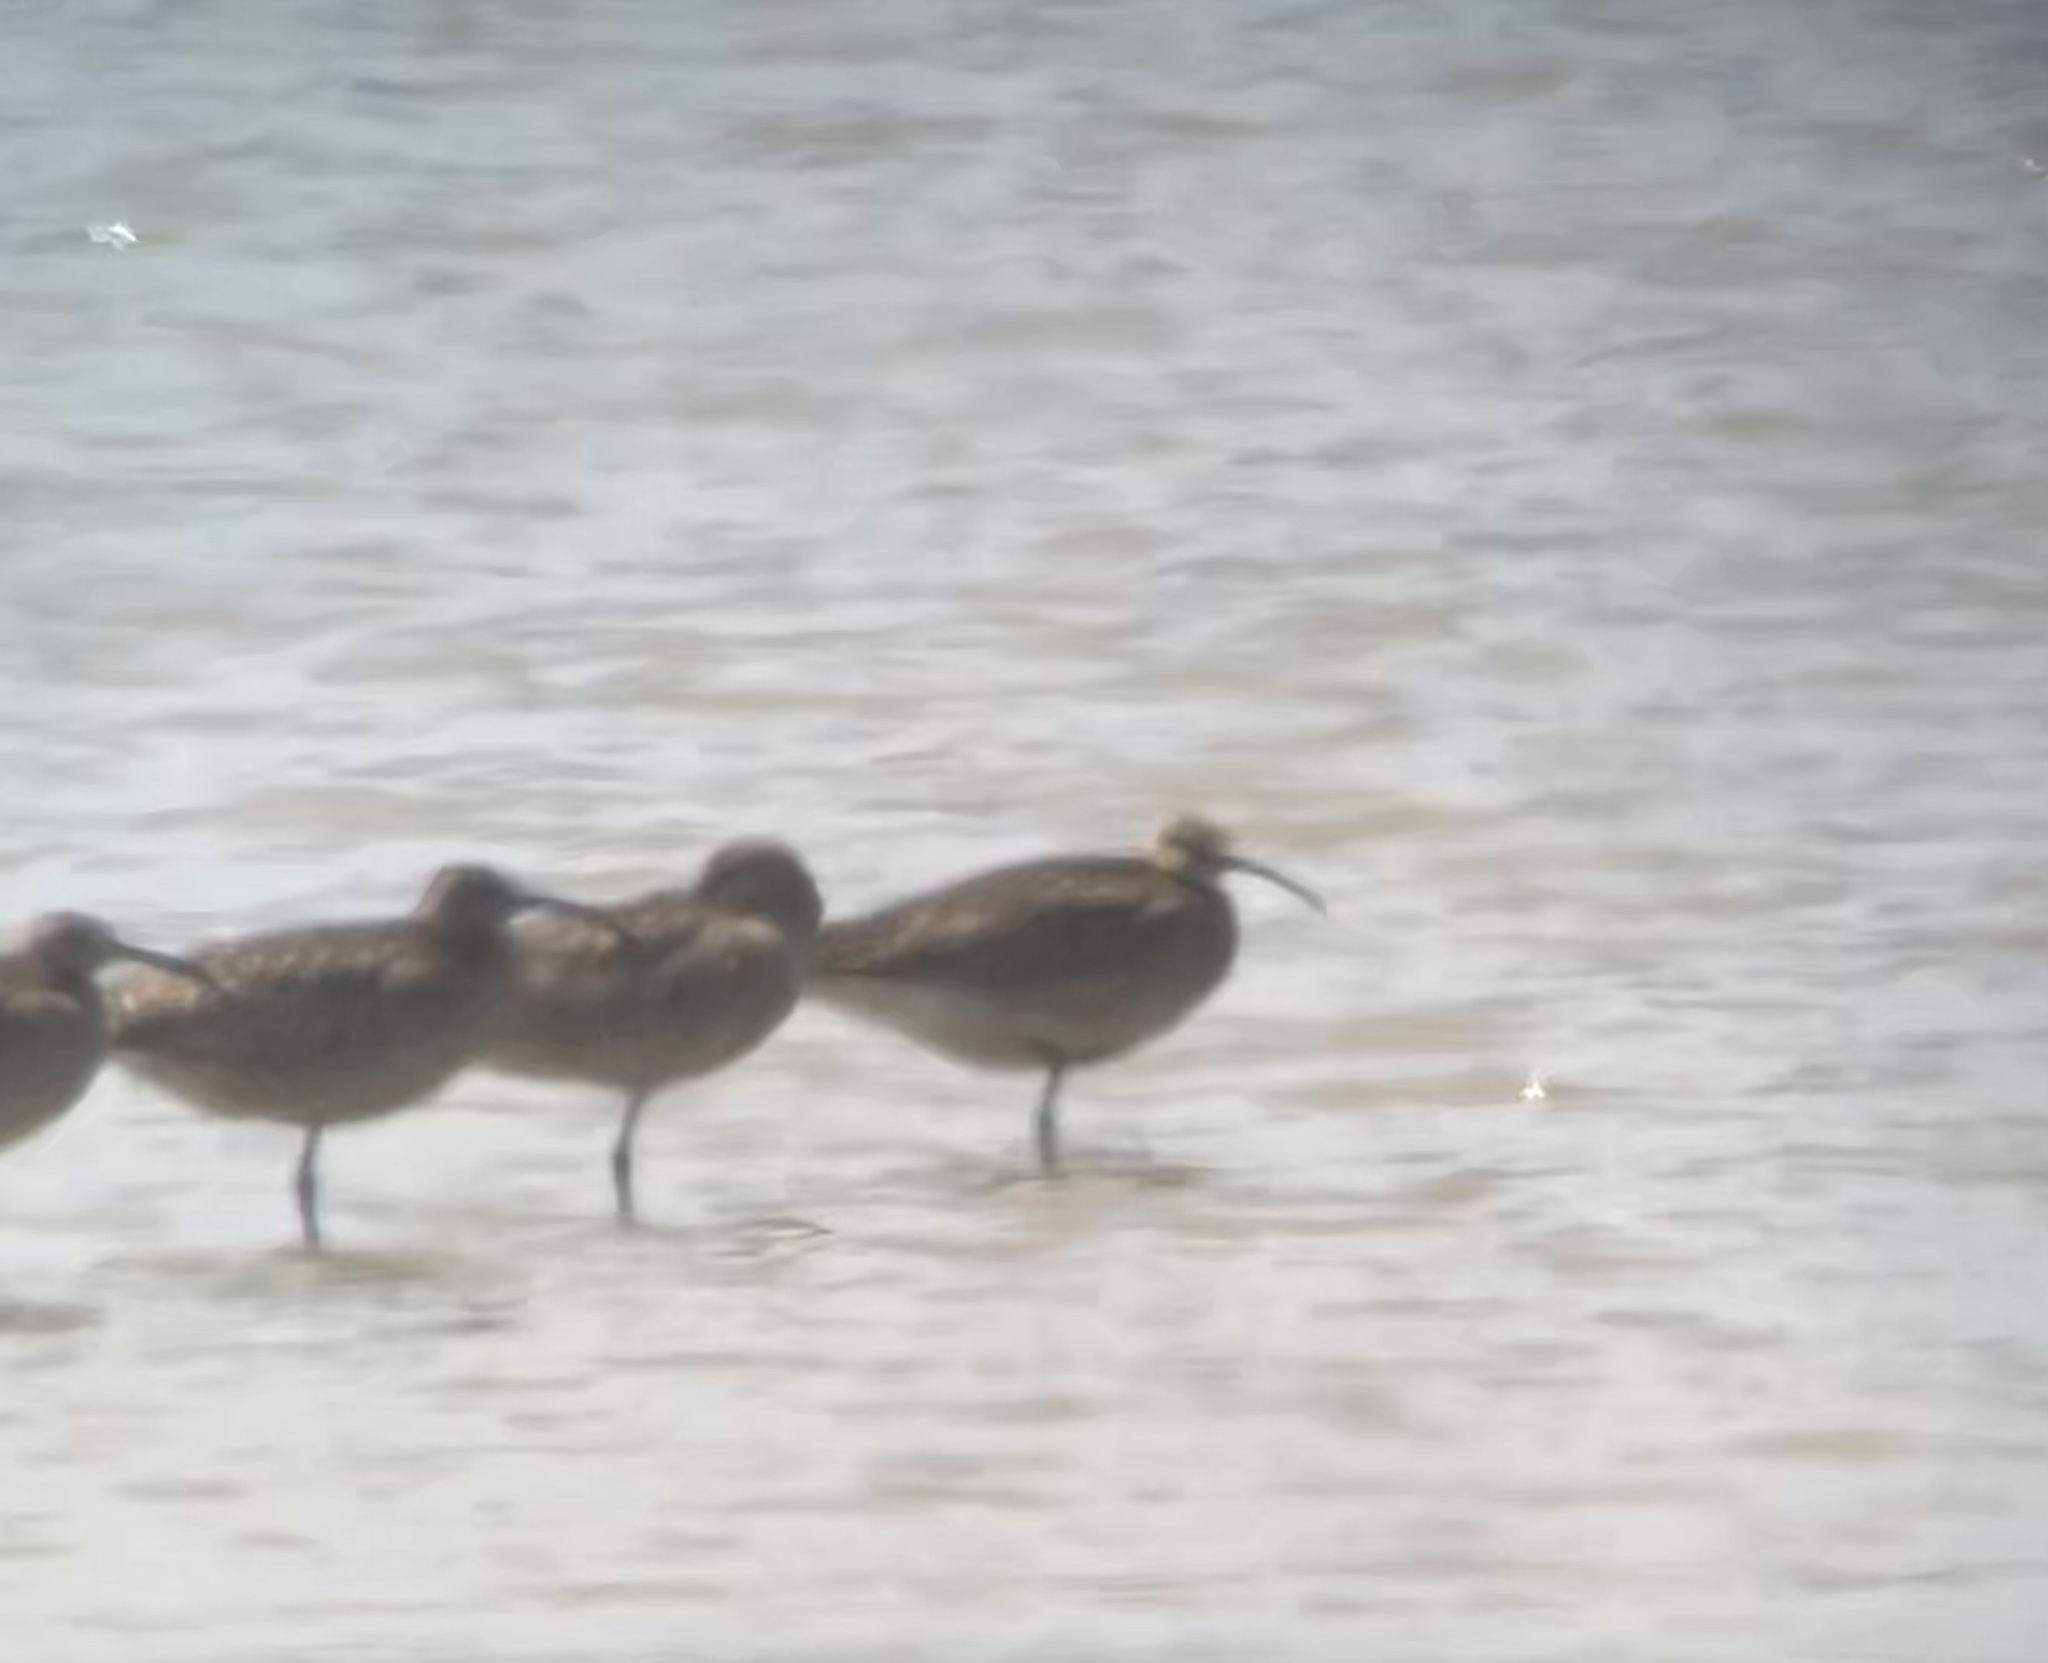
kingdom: Animalia
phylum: Chordata
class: Aves
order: Charadriiformes
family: Scolopacidae
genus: Numenius
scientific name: Numenius phaeopus
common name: Whimbrel
